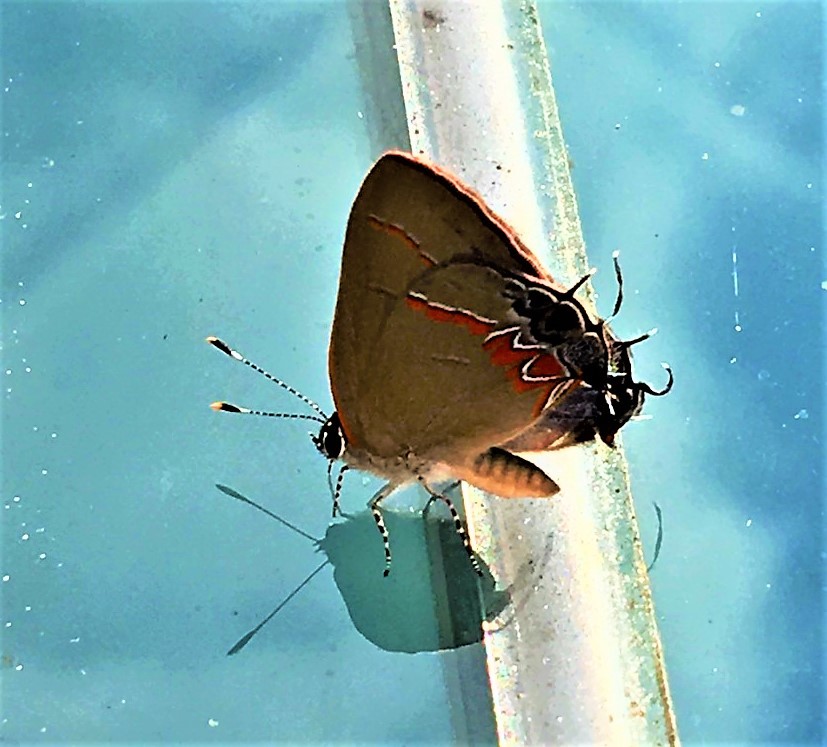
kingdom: Animalia
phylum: Arthropoda
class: Insecta
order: Lepidoptera
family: Lycaenidae
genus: Calycopis
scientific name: Calycopis cecrops
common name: Red-banded hairstreak
